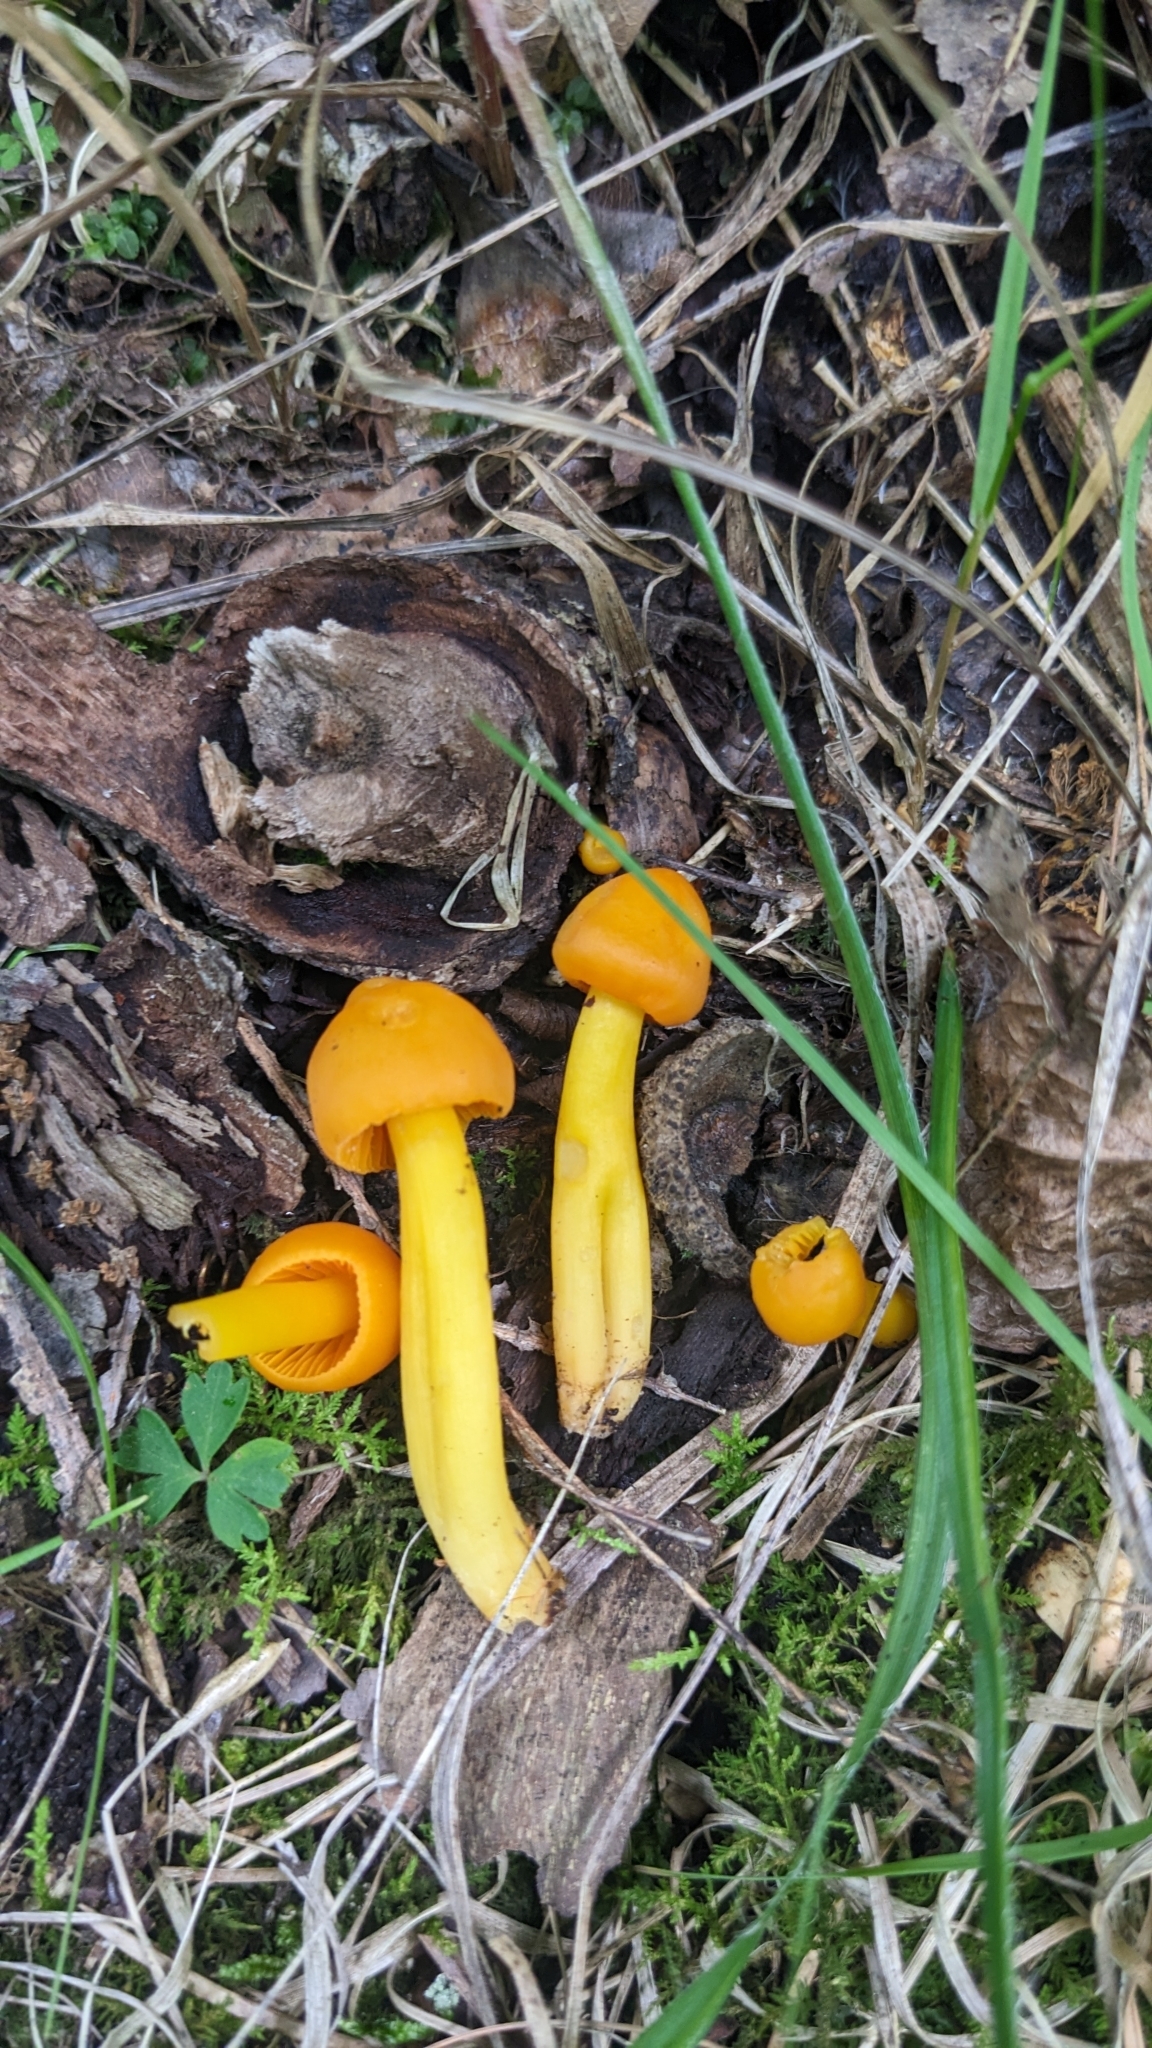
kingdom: Fungi
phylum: Basidiomycota
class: Agaricomycetes
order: Agaricales
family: Hygrophoraceae
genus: Humidicutis
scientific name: Humidicutis marginata
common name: Orange gilled waxcap
